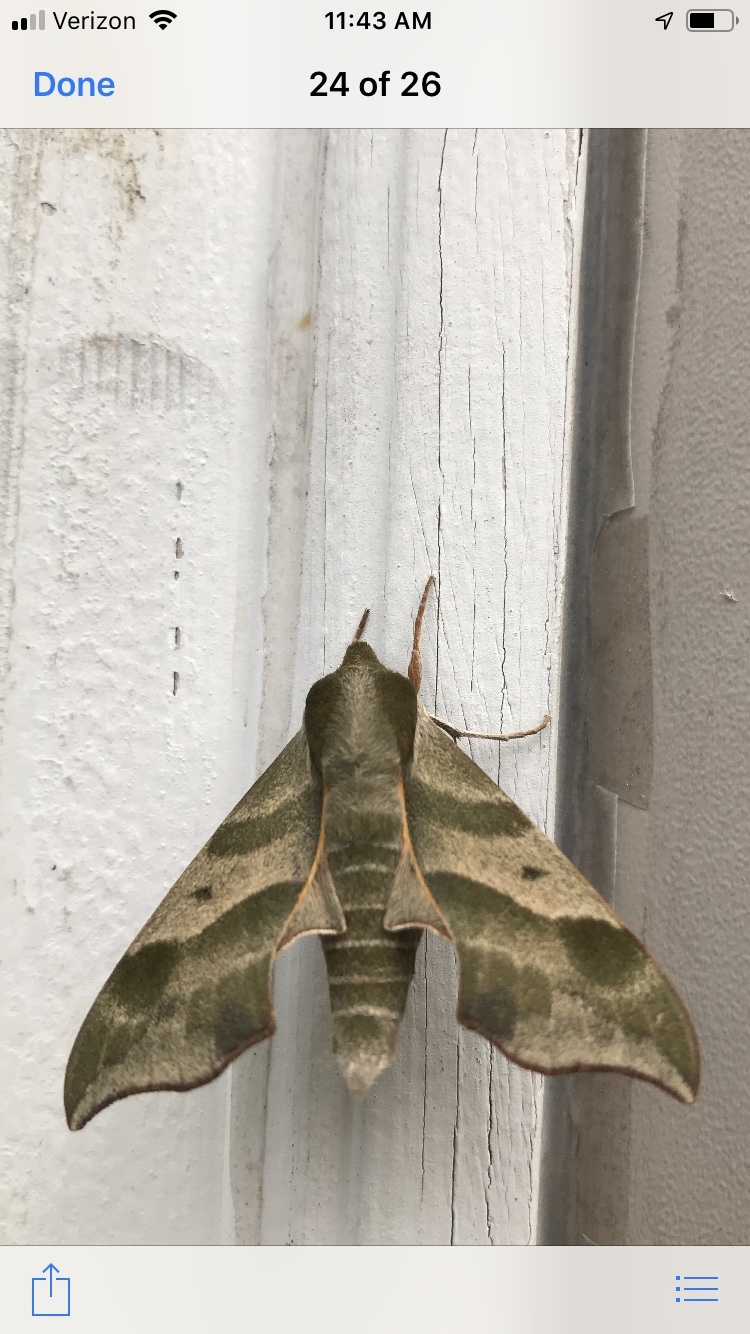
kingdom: Animalia
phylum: Arthropoda
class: Insecta
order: Lepidoptera
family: Sphingidae
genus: Darapsa
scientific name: Darapsa myron
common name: Hog sphinx
